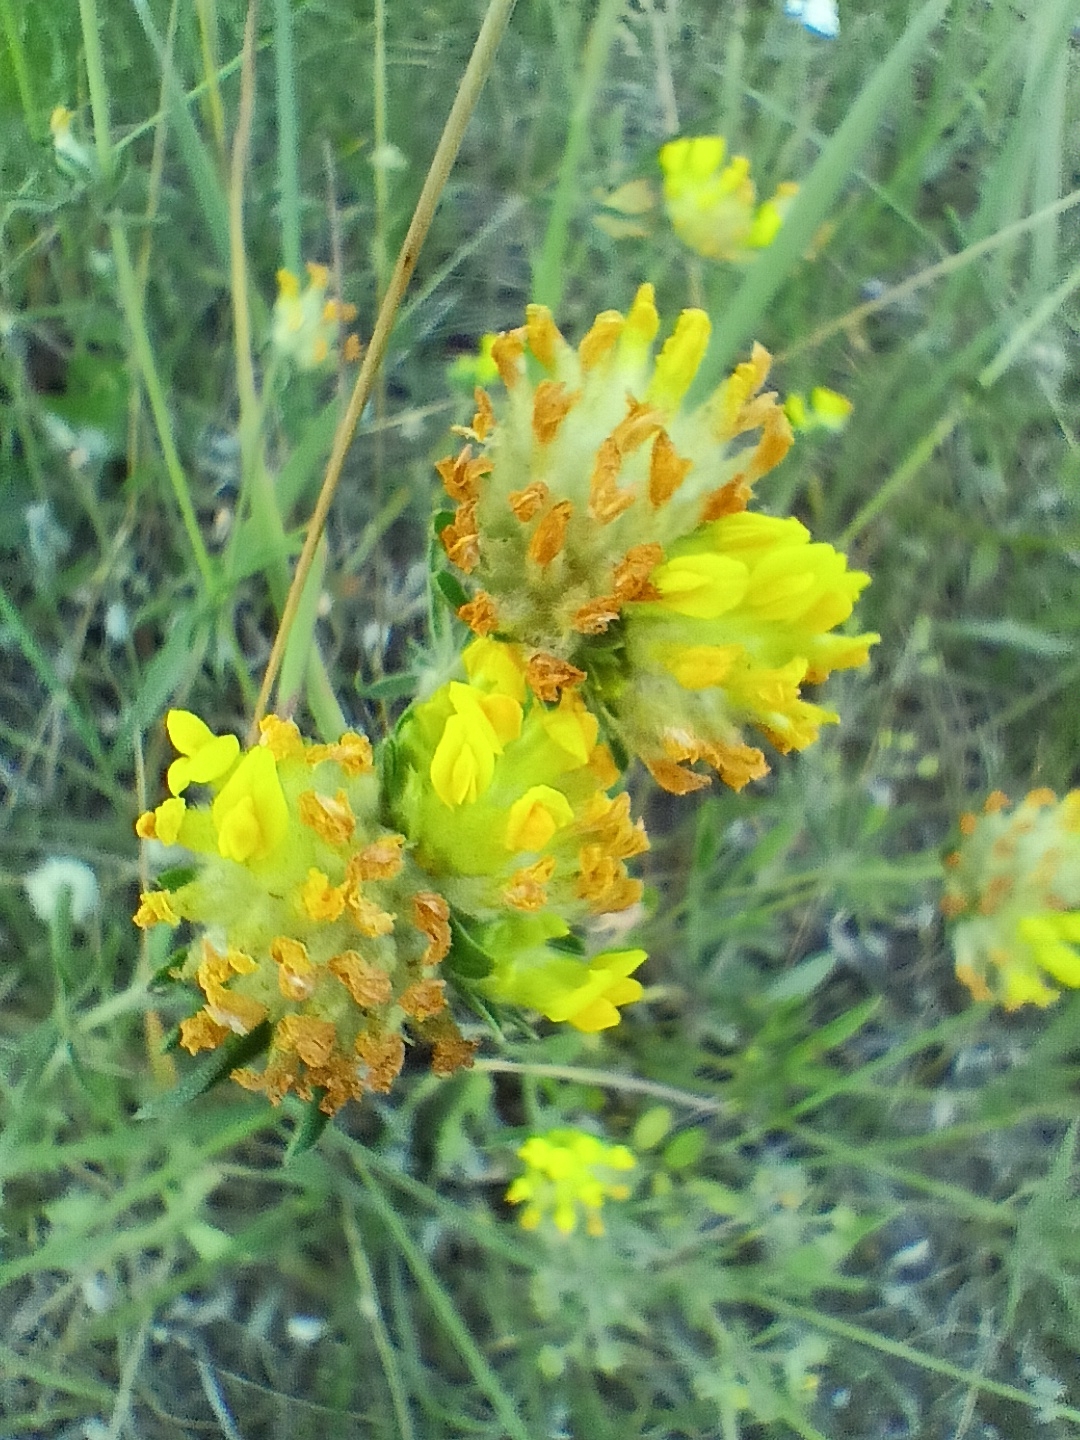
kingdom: Plantae
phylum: Tracheophyta
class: Magnoliopsida
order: Fabales
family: Fabaceae
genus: Anthyllis
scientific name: Anthyllis vulneraria
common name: Kidney vetch
